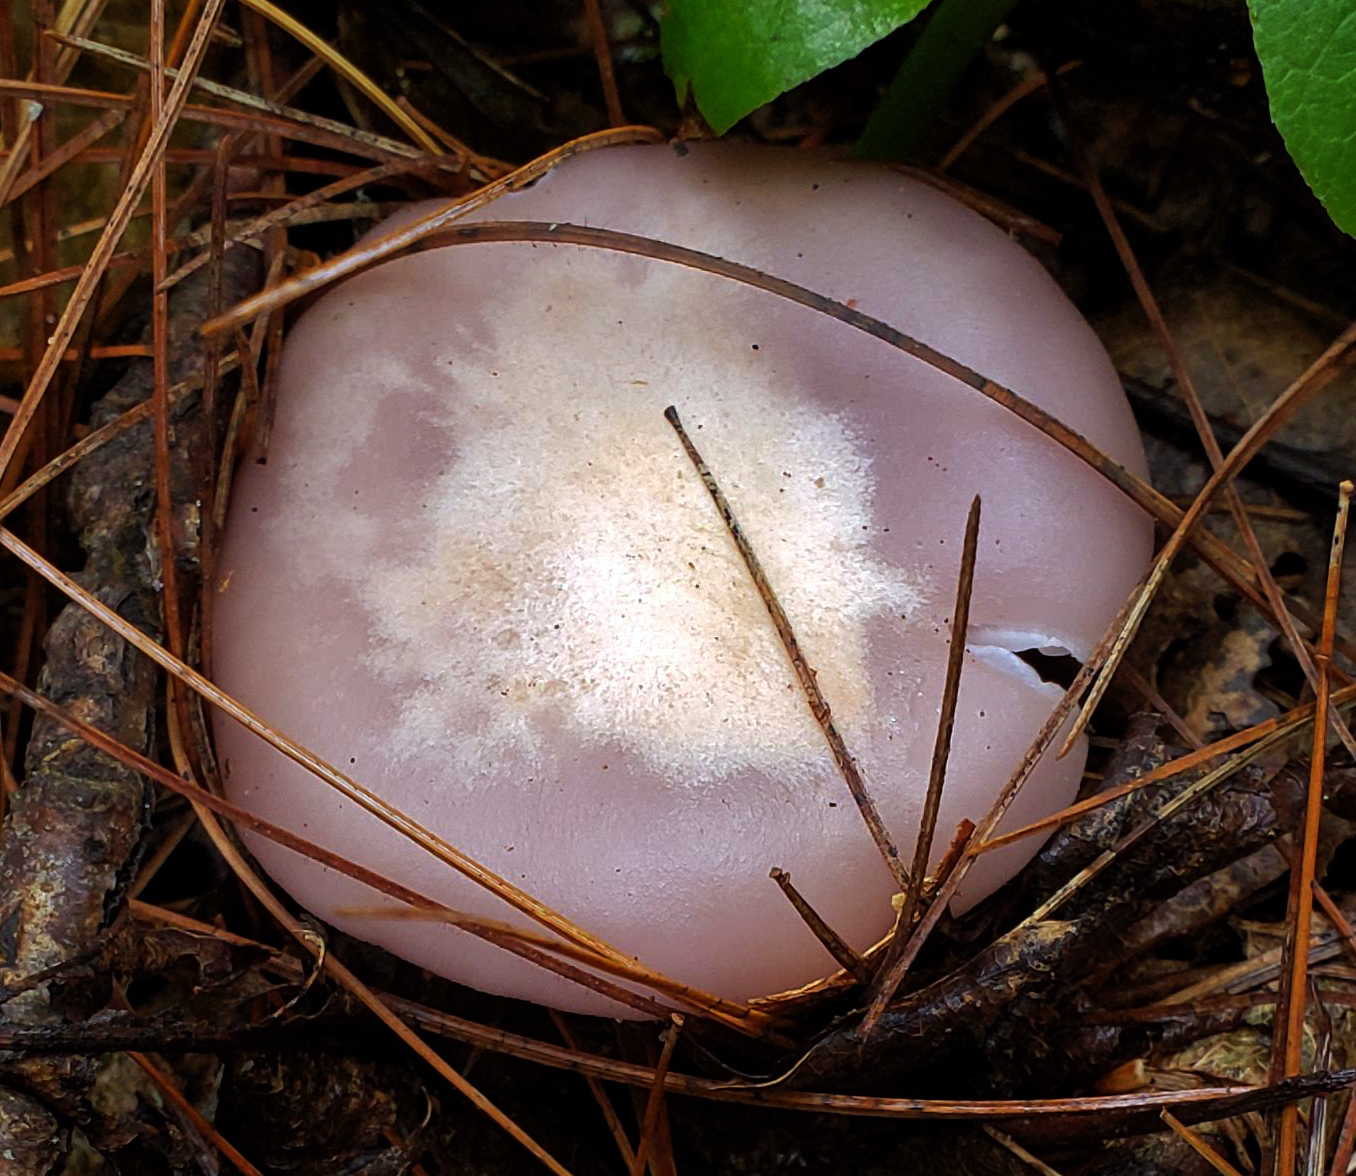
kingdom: Fungi
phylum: Basidiomycota
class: Agaricomycetes
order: Agaricales
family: Tricholomataceae
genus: Collybia
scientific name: Collybia
